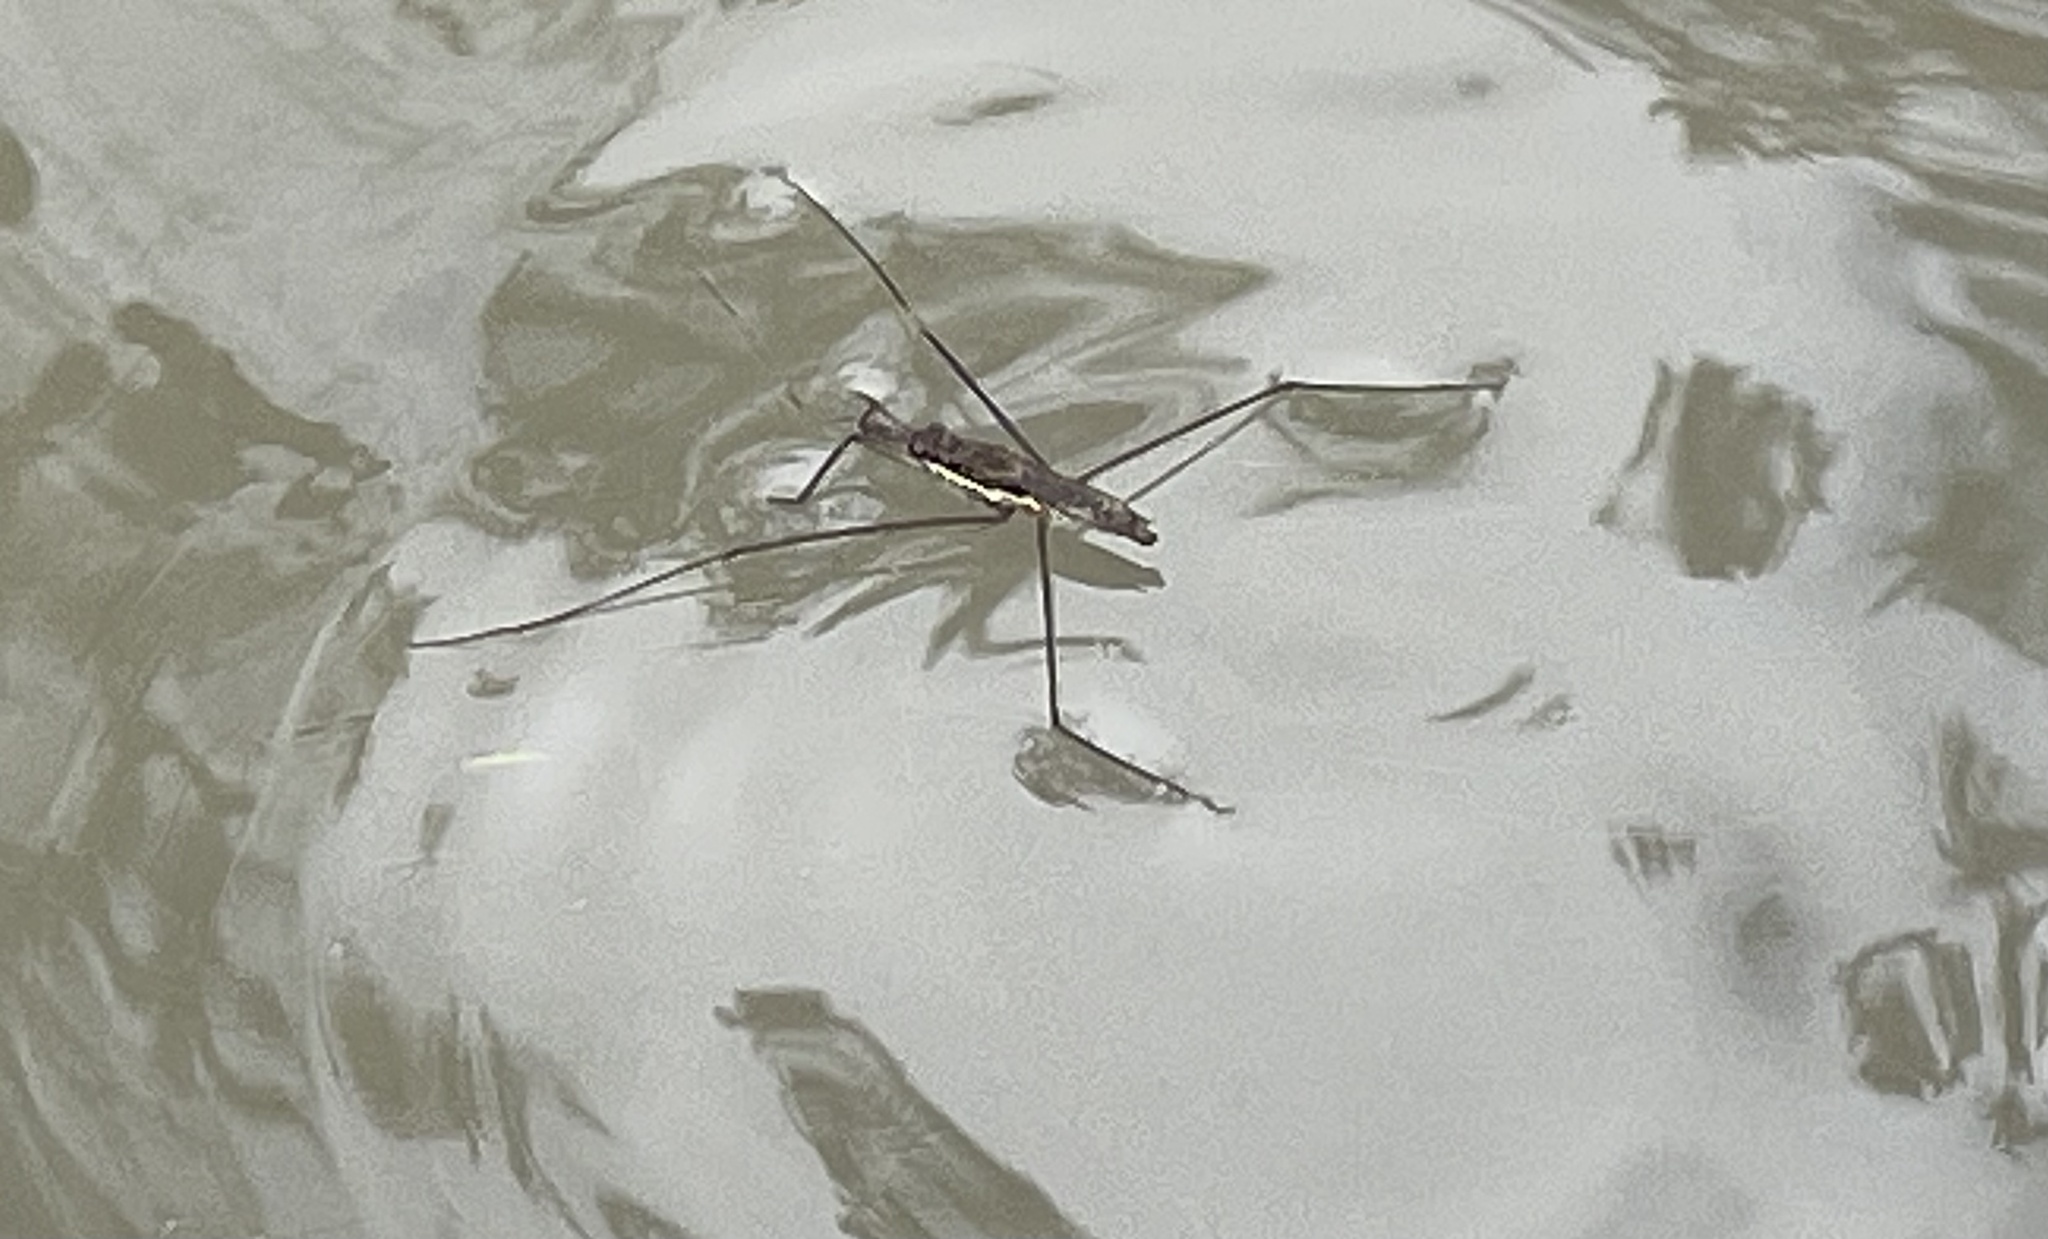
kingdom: Animalia
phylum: Arthropoda
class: Insecta
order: Hemiptera
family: Gerridae
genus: Aquarius
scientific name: Aquarius
